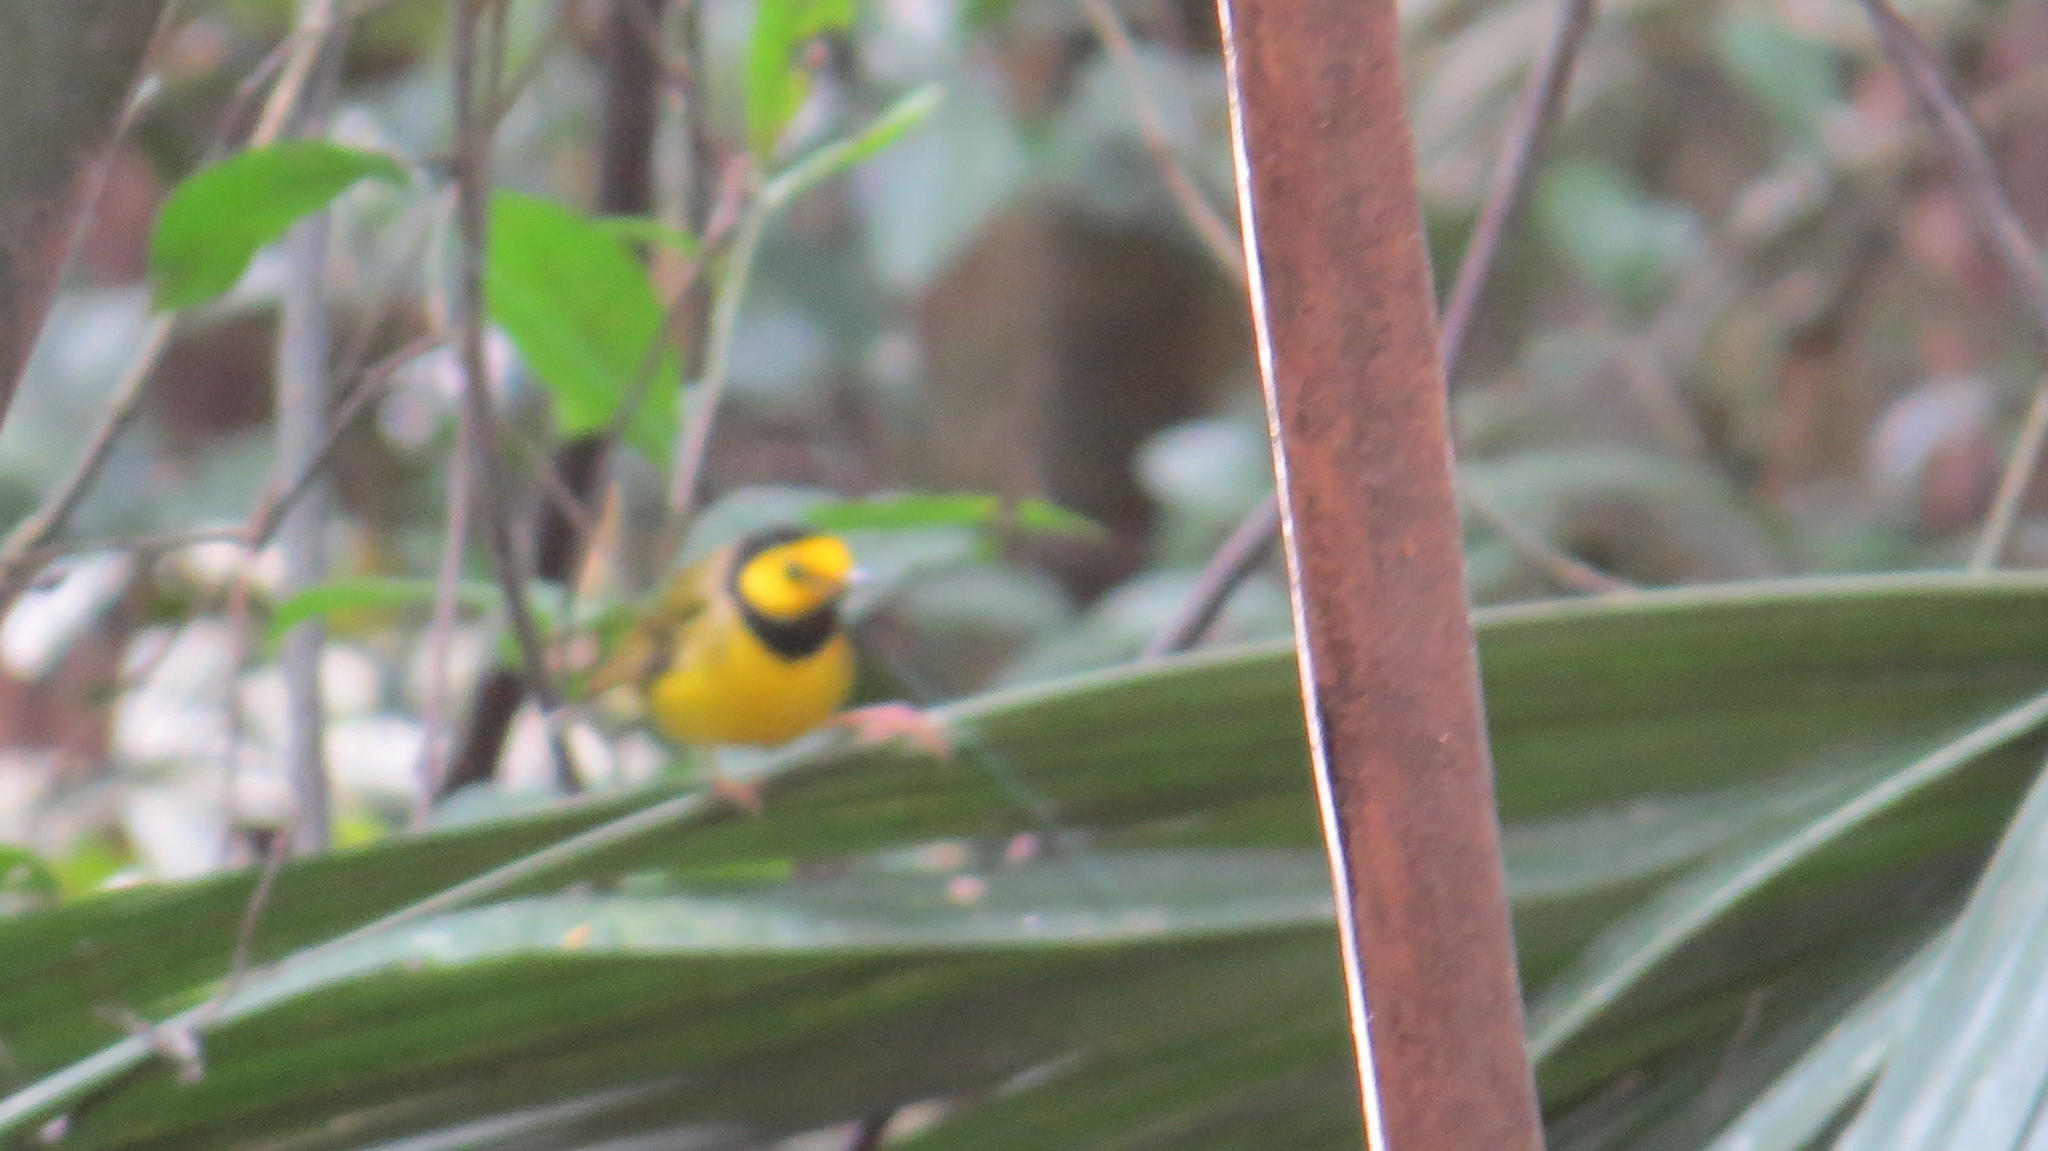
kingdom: Animalia
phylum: Chordata
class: Aves
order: Passeriformes
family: Parulidae
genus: Setophaga
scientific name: Setophaga citrina
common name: Hooded warbler
